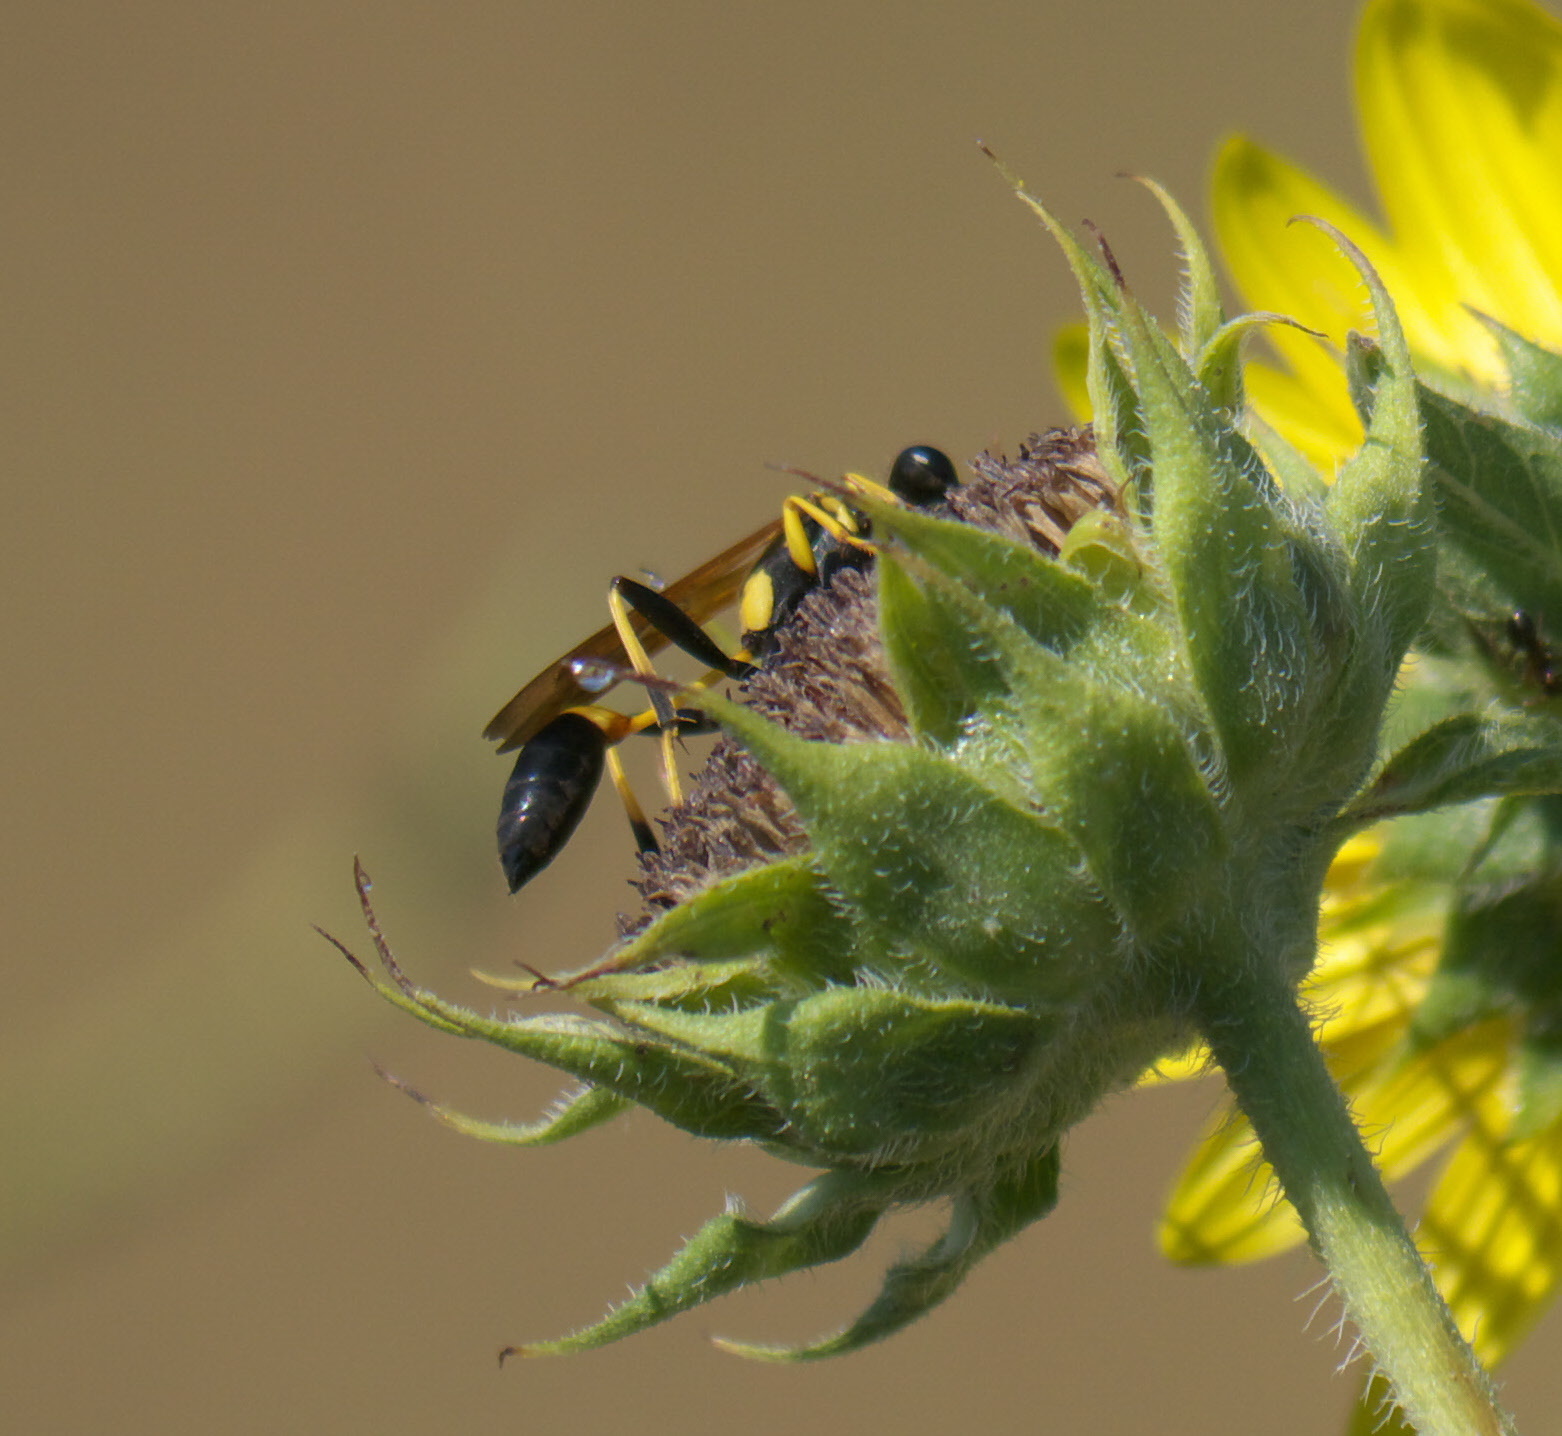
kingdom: Animalia
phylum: Arthropoda
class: Insecta
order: Hymenoptera
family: Sphecidae
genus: Sceliphron
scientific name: Sceliphron caementarium
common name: Mud dauber
